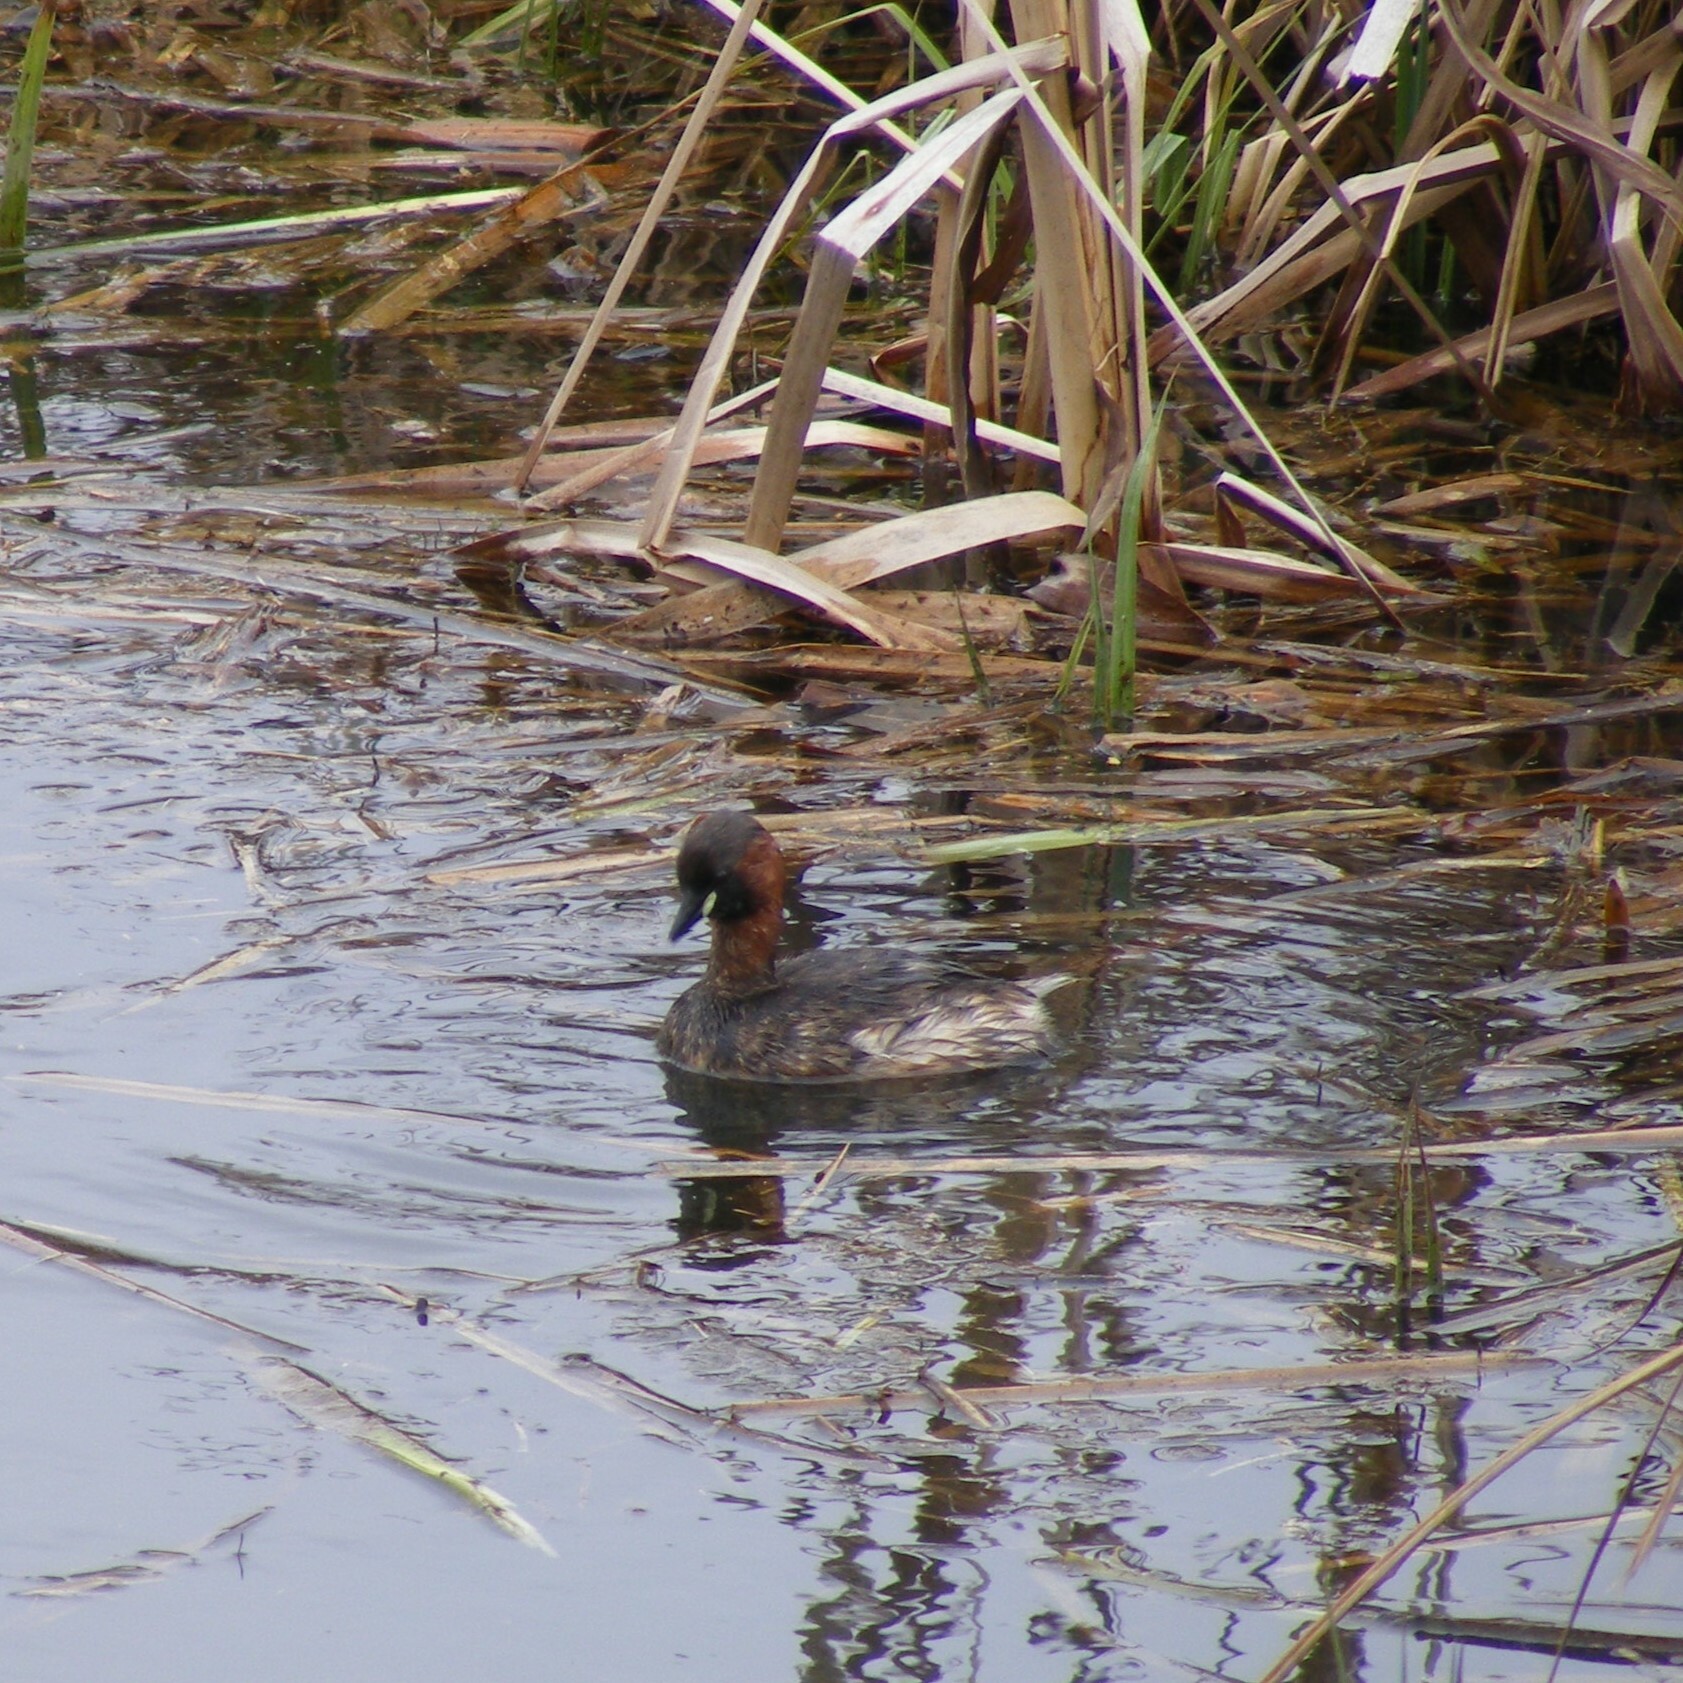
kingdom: Animalia
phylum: Chordata
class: Aves
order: Podicipediformes
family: Podicipedidae
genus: Tachybaptus
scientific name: Tachybaptus ruficollis
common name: Little grebe
